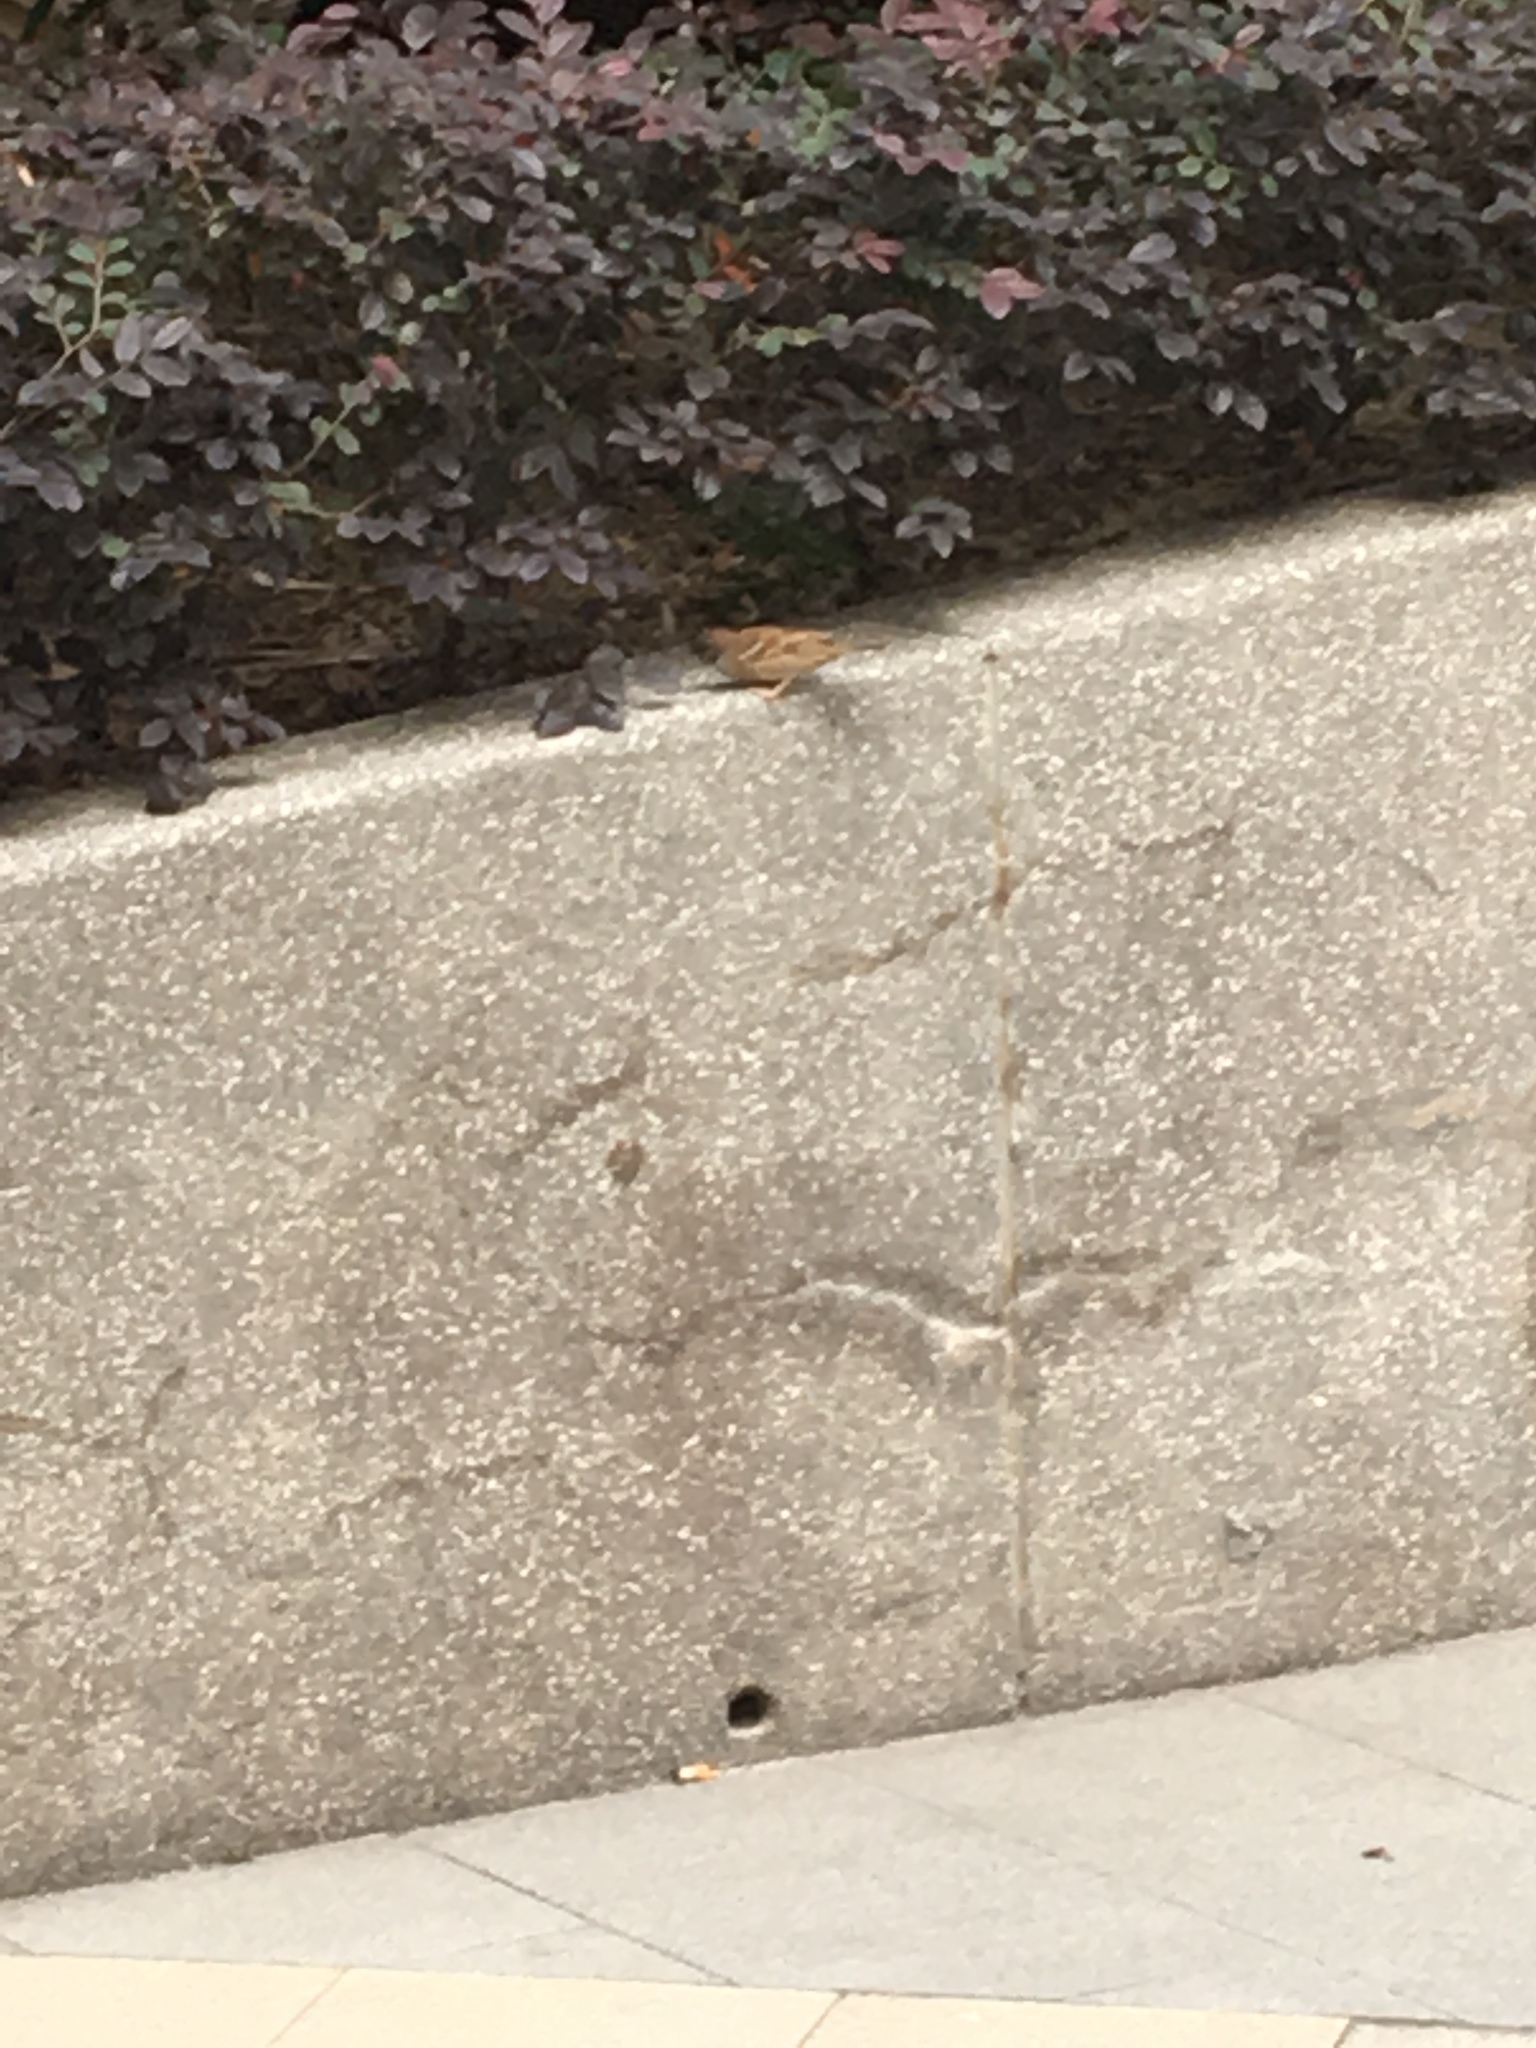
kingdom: Animalia
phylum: Chordata
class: Aves
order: Passeriformes
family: Passeridae
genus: Passer
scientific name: Passer montanus
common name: Eurasian tree sparrow
